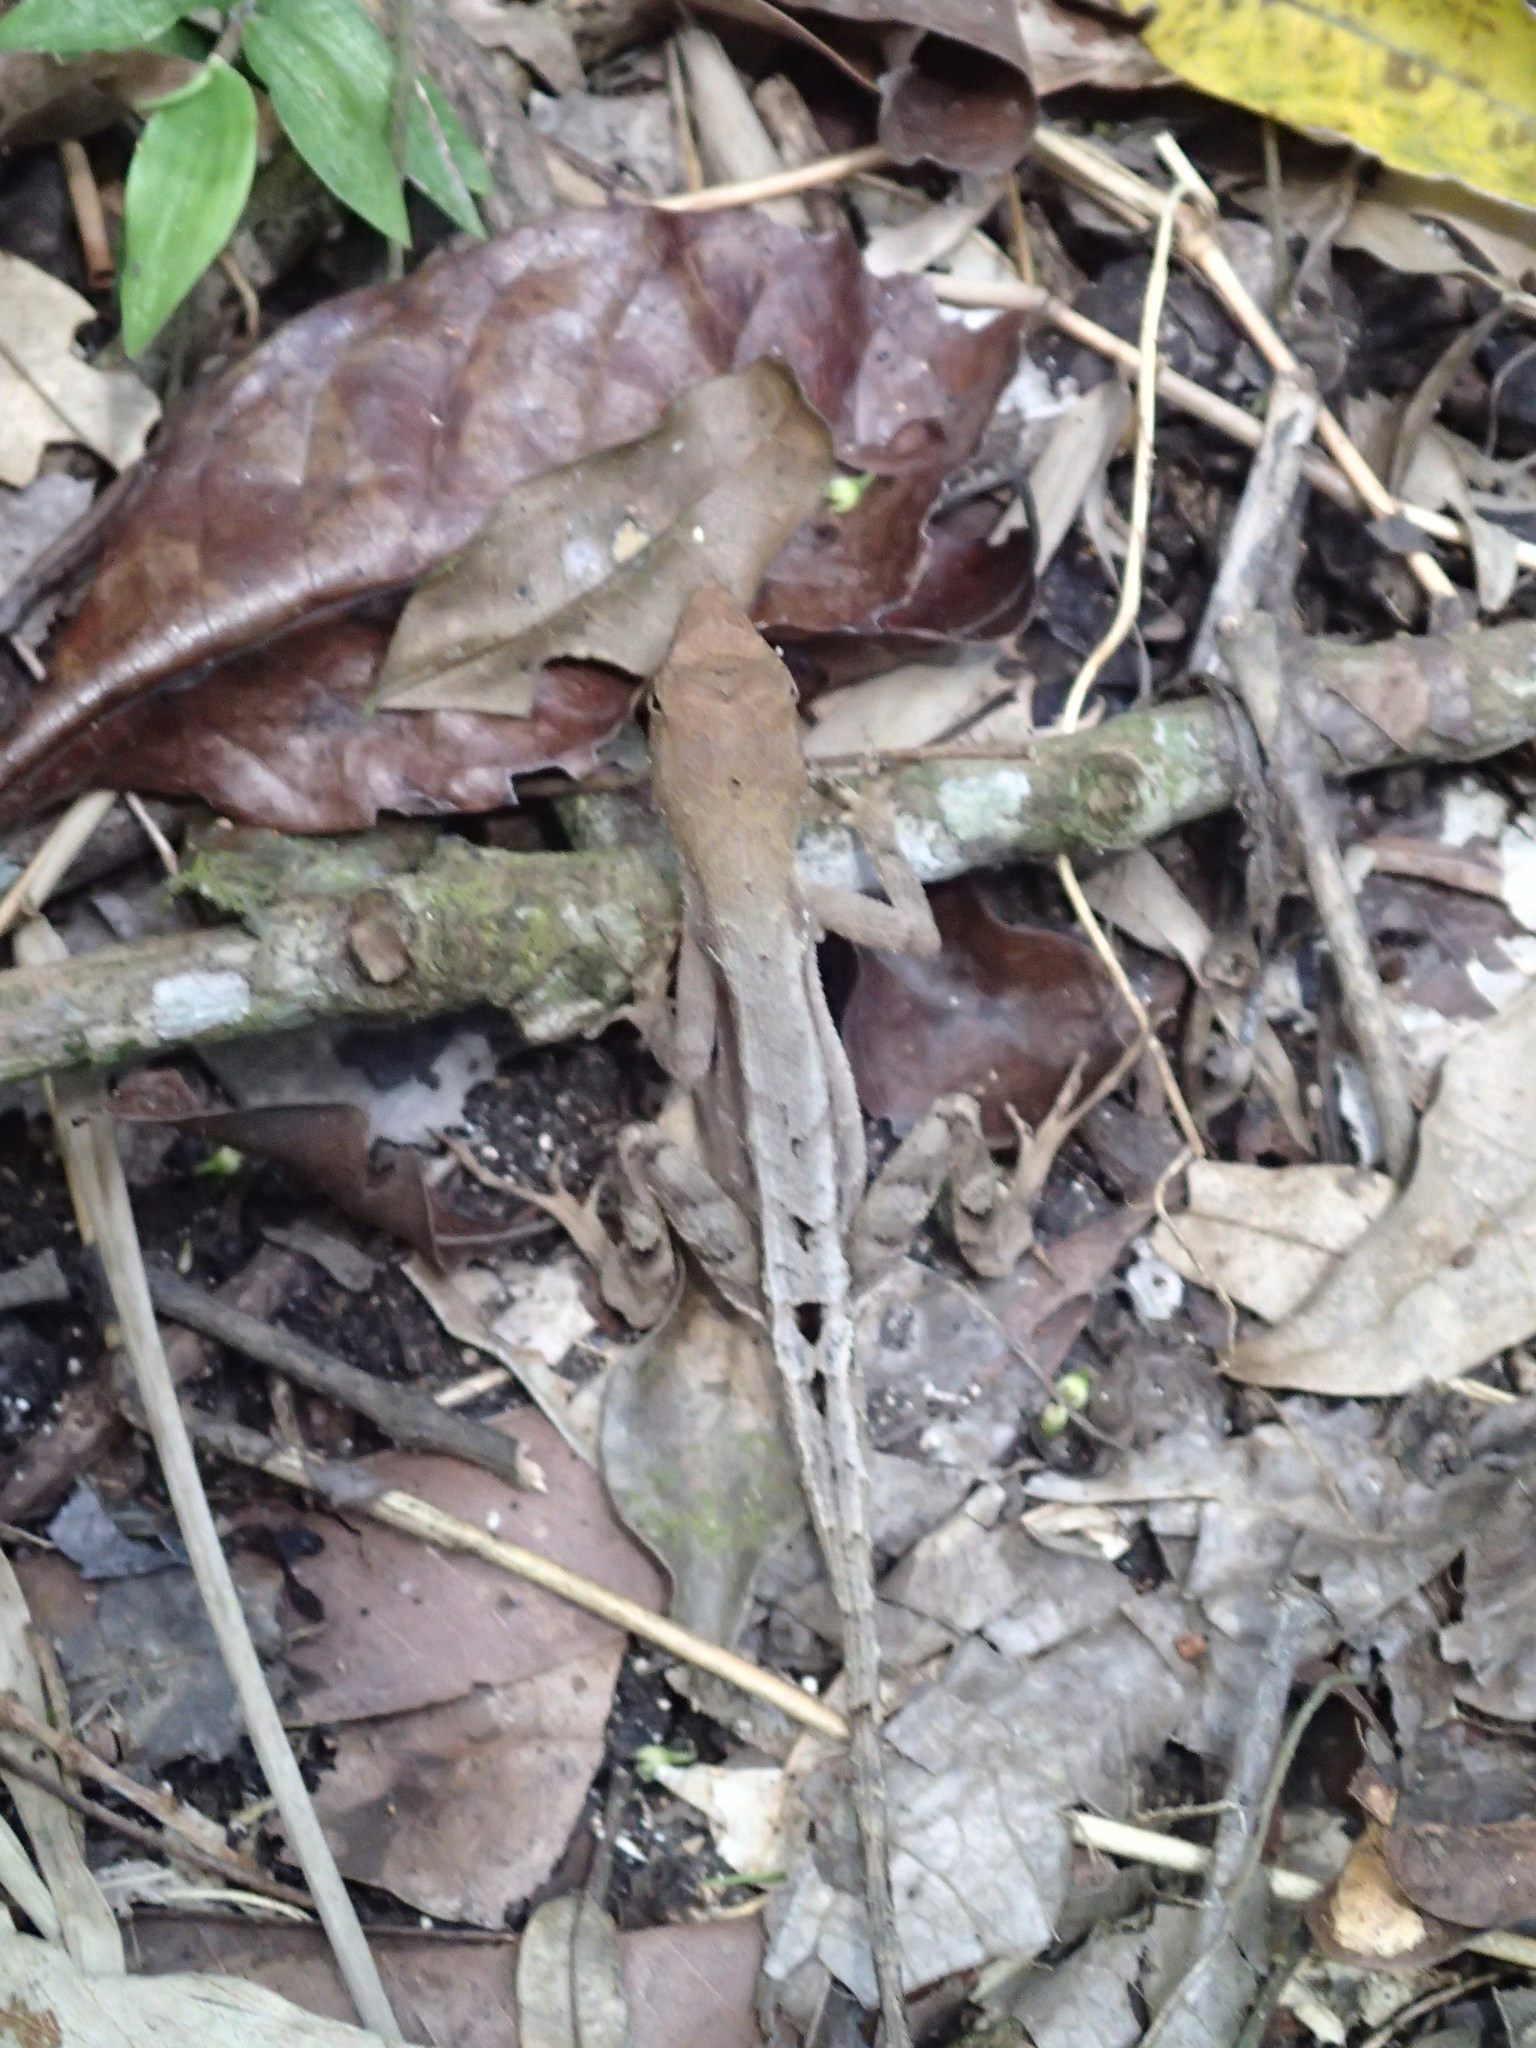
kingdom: Animalia
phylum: Chordata
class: Squamata
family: Dactyloidae
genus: Anolis
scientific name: Anolis tropidonotus
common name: Greater scaly anole
